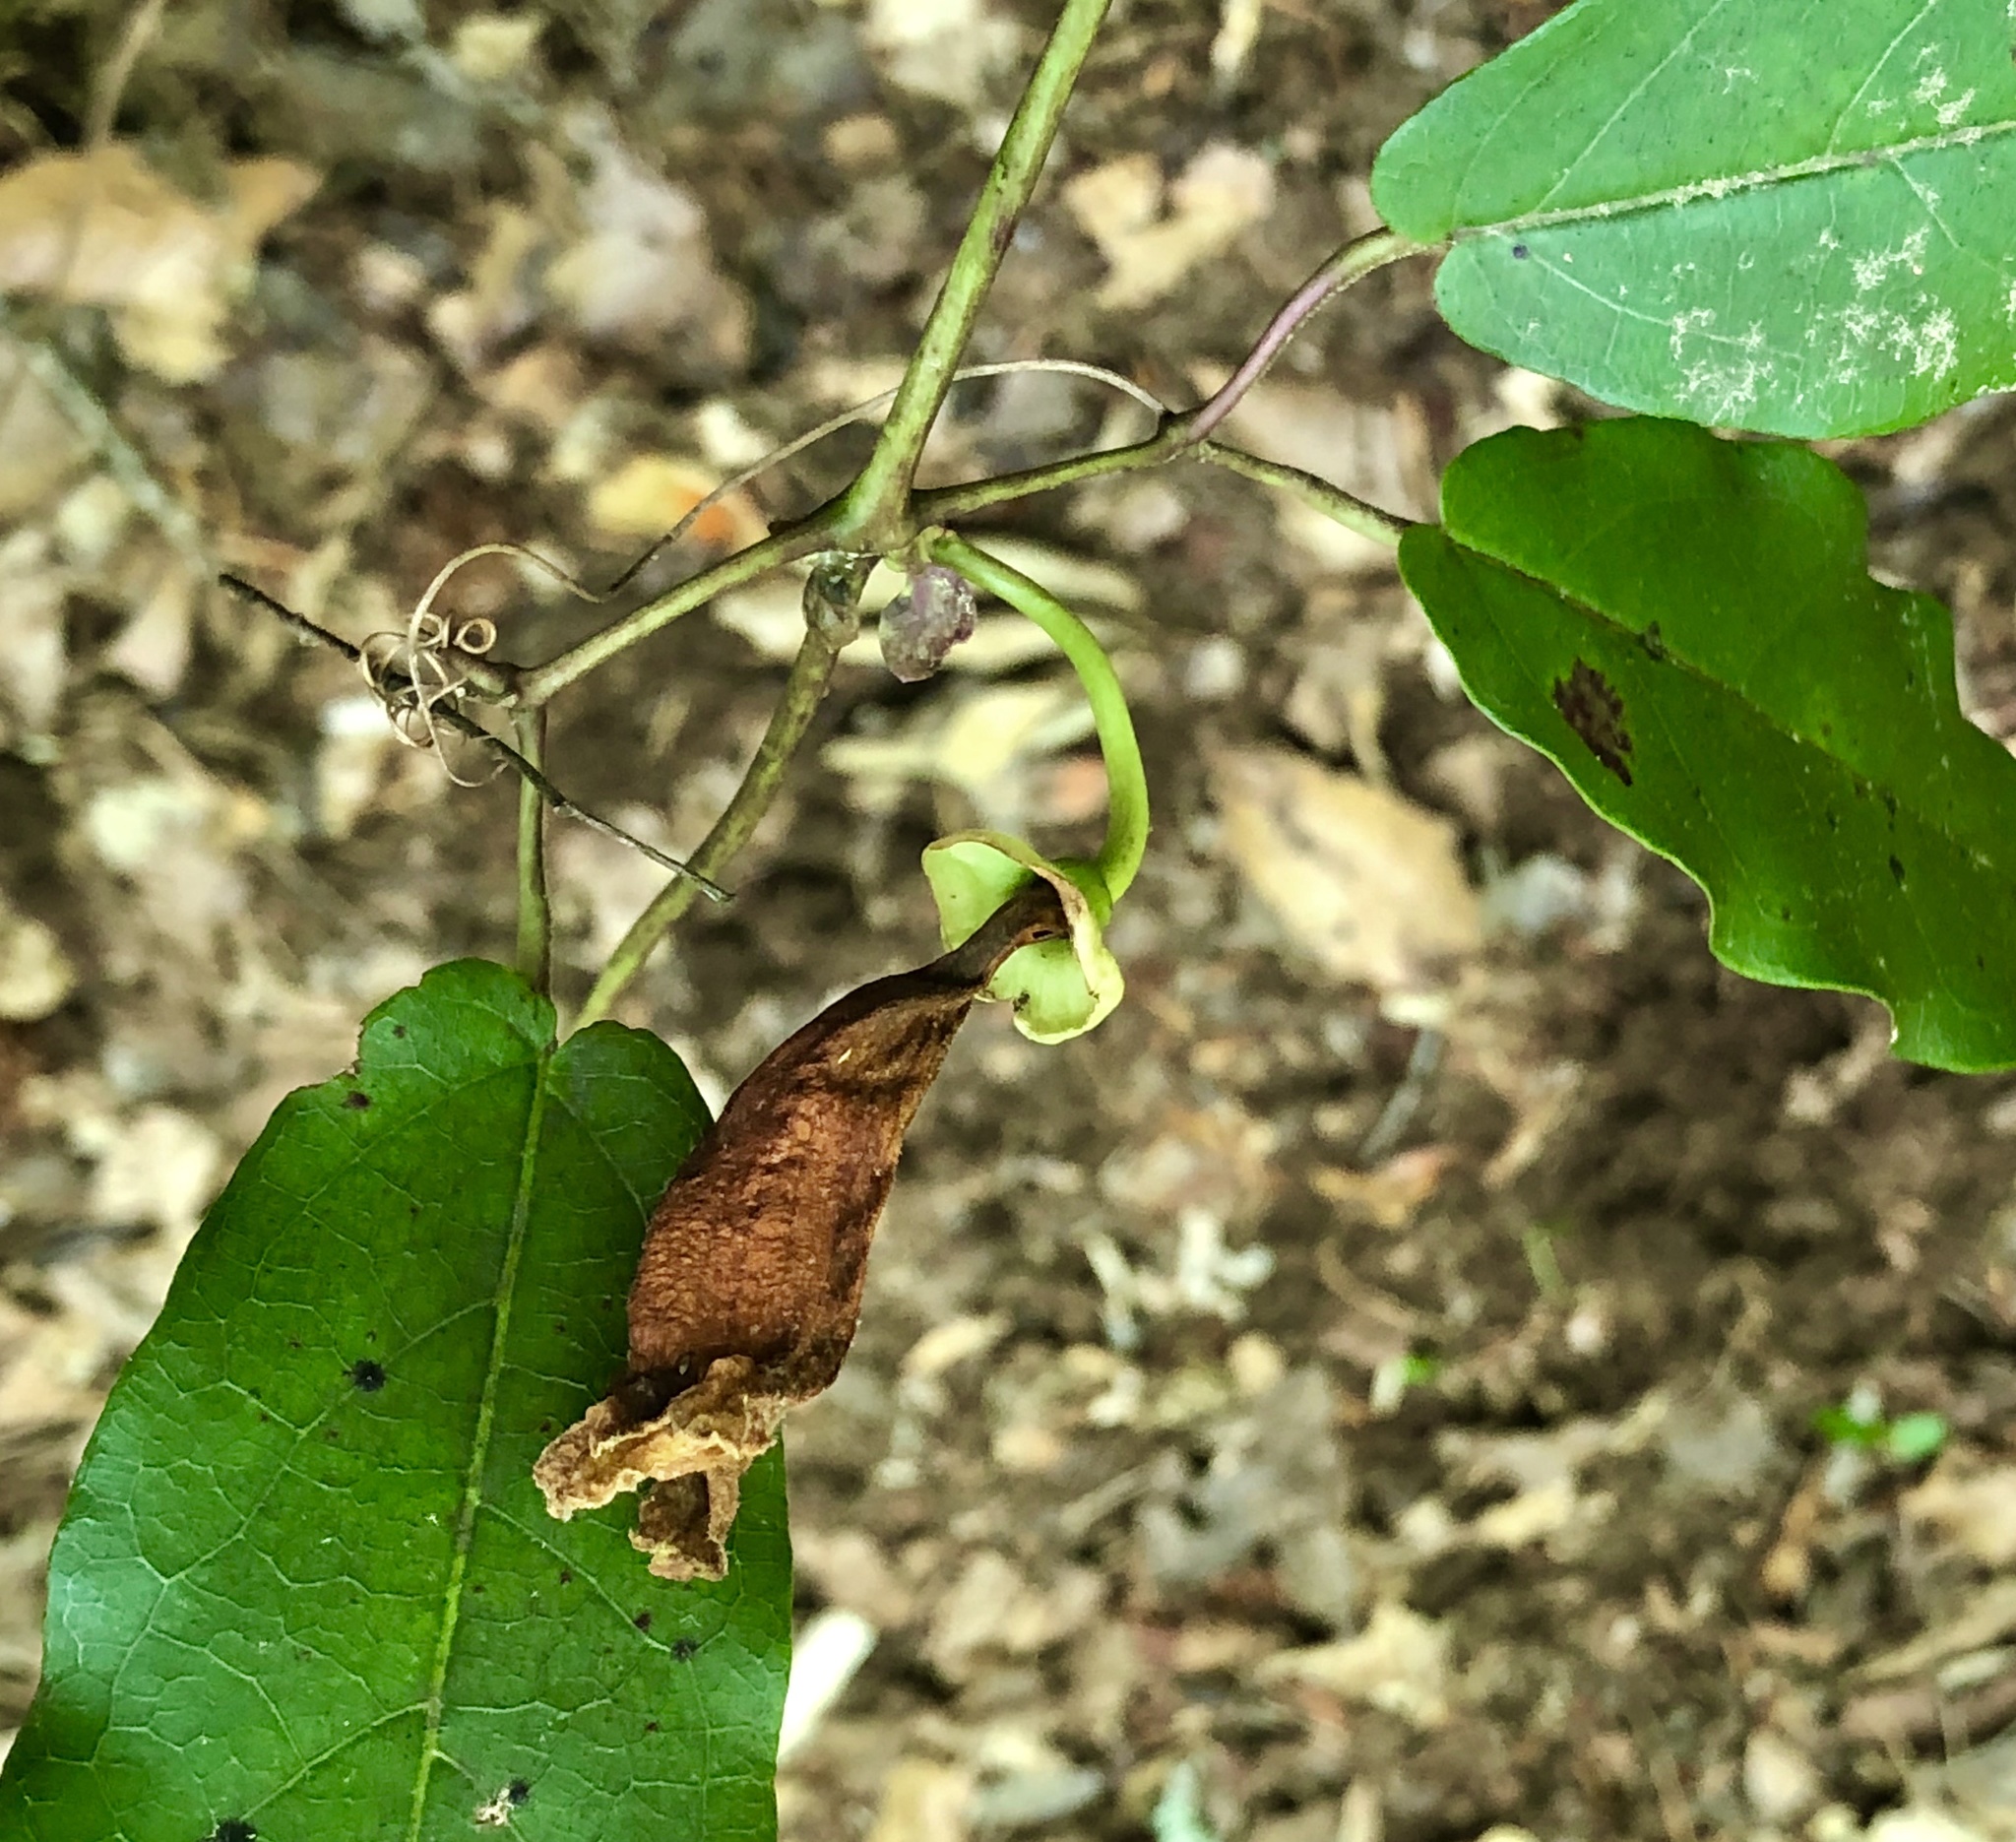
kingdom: Plantae
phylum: Tracheophyta
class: Magnoliopsida
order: Lamiales
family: Bignoniaceae
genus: Bignonia
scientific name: Bignonia capreolata
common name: Crossvine
